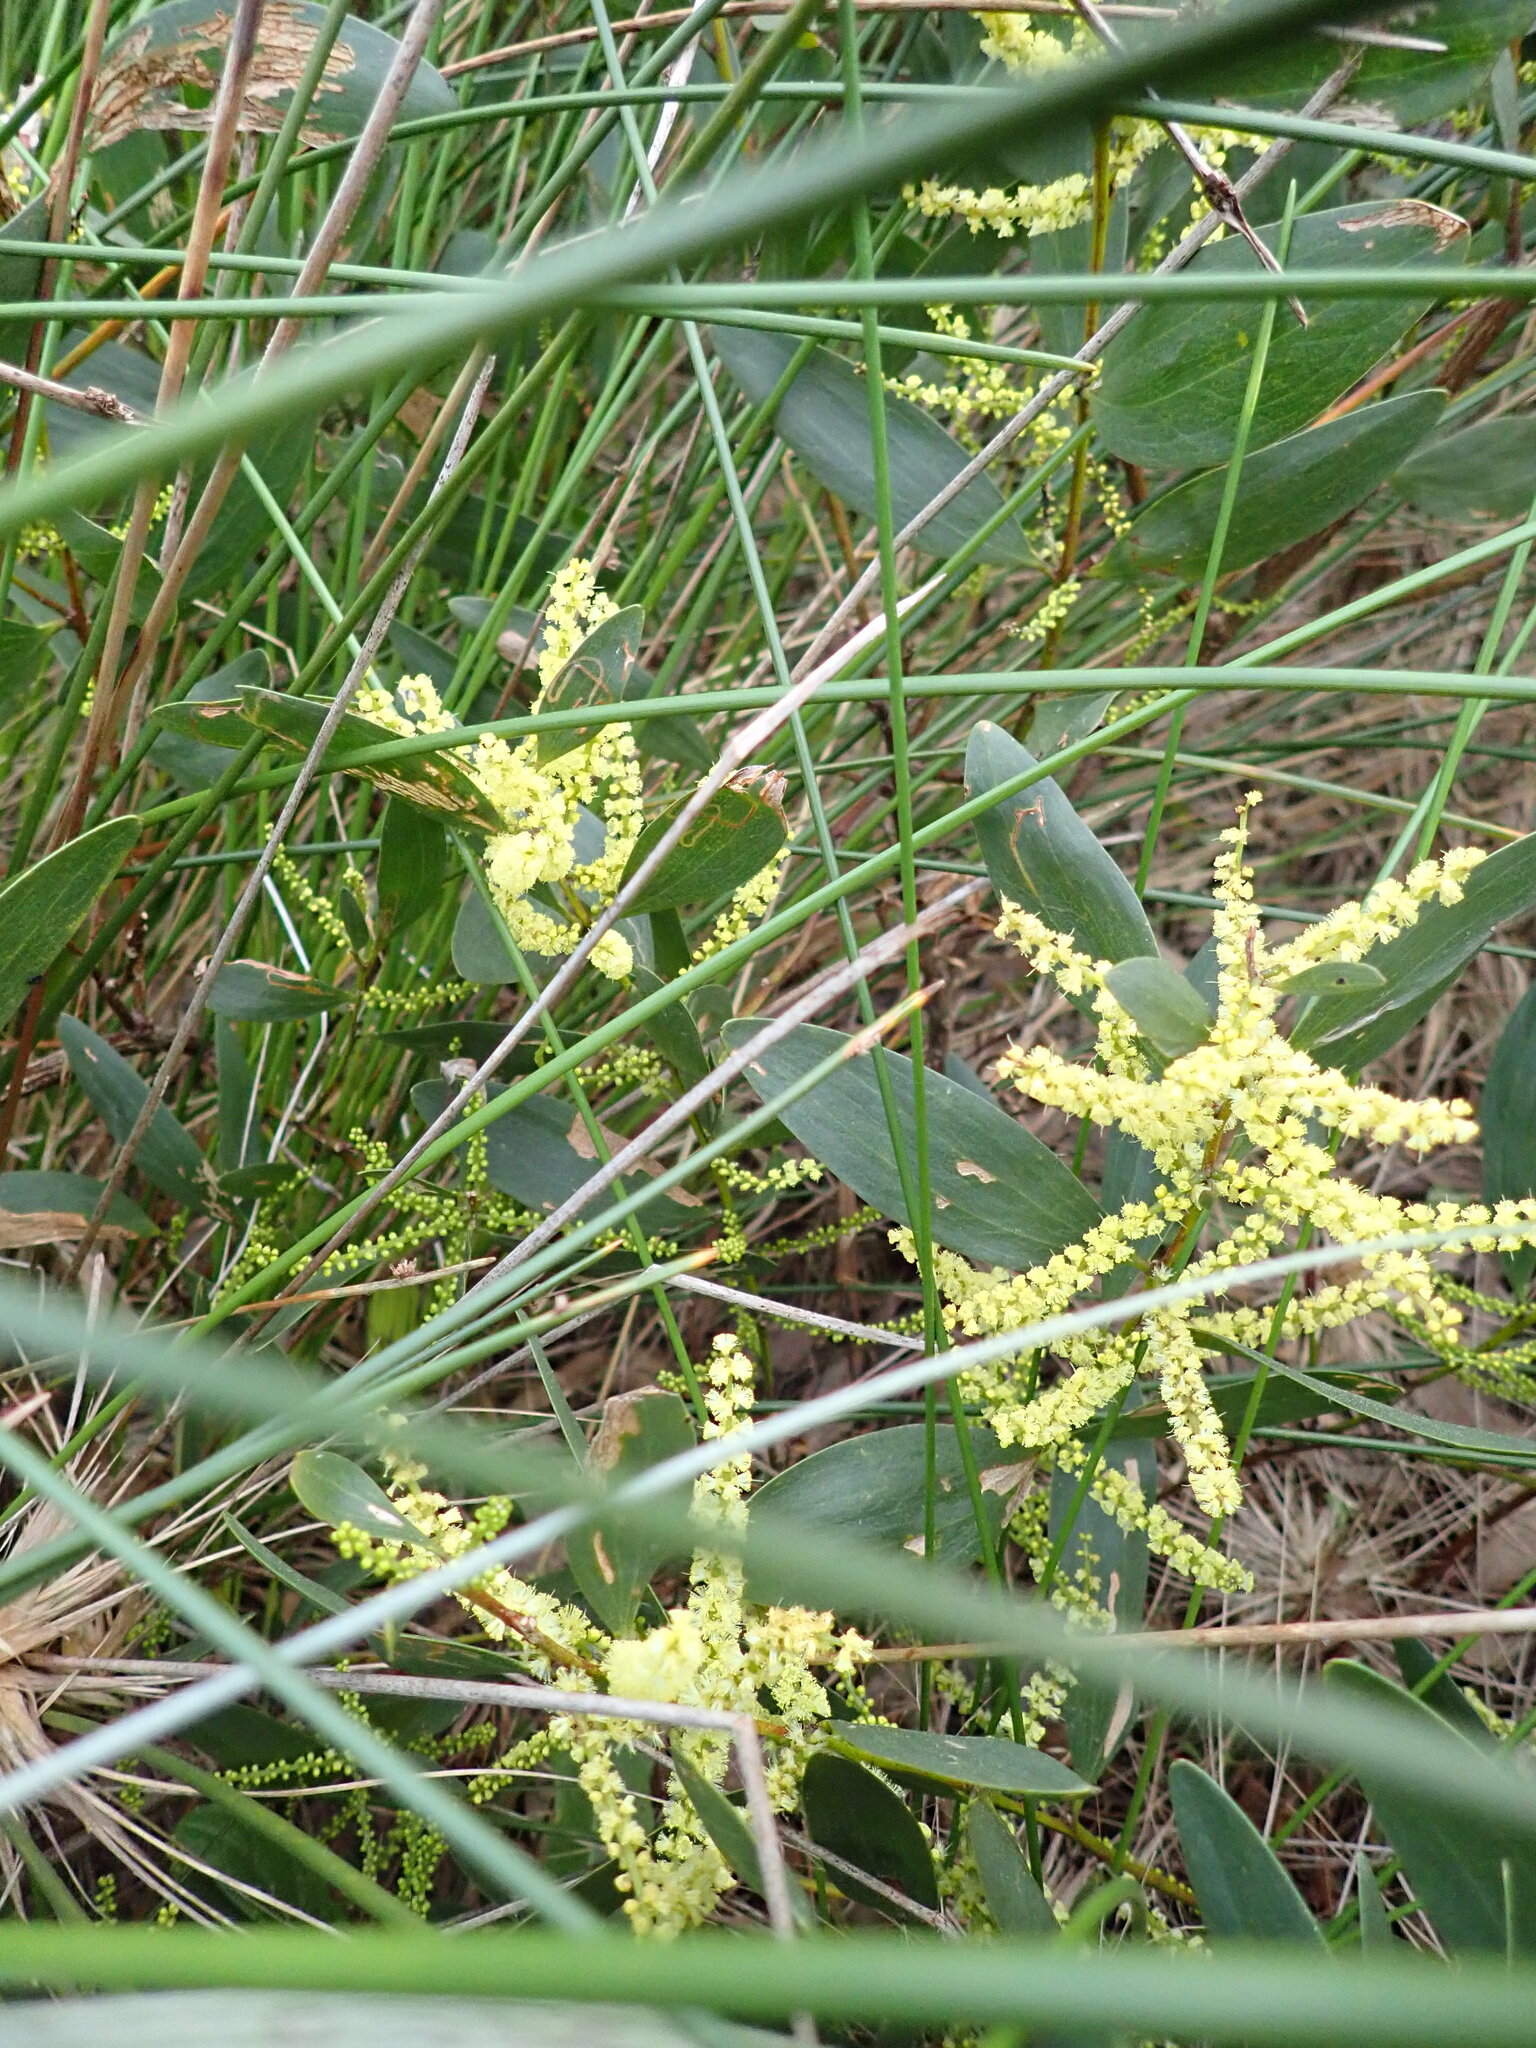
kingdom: Plantae
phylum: Tracheophyta
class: Magnoliopsida
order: Fabales
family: Fabaceae
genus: Acacia
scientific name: Acacia longifolia
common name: Sydney golden wattle
